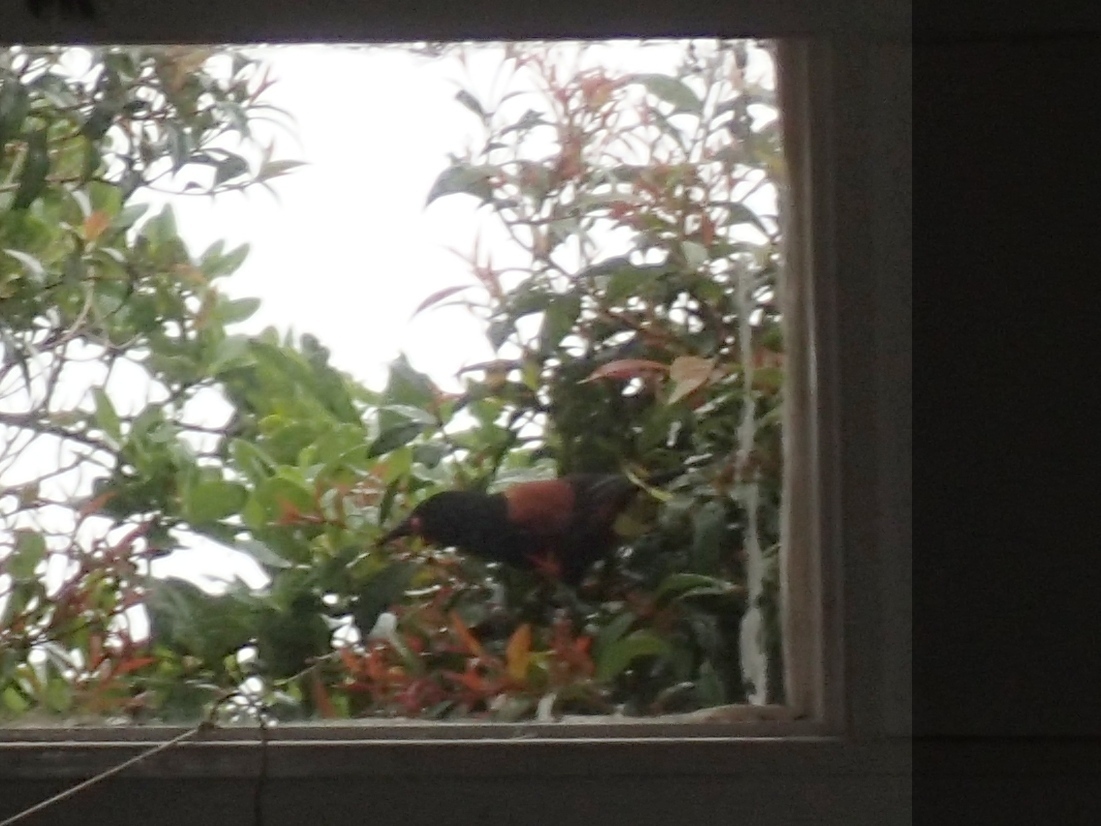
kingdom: Animalia
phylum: Chordata
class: Aves
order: Passeriformes
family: Callaeatidae
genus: Philesturnus
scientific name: Philesturnus carunculatus
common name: South island saddleback
